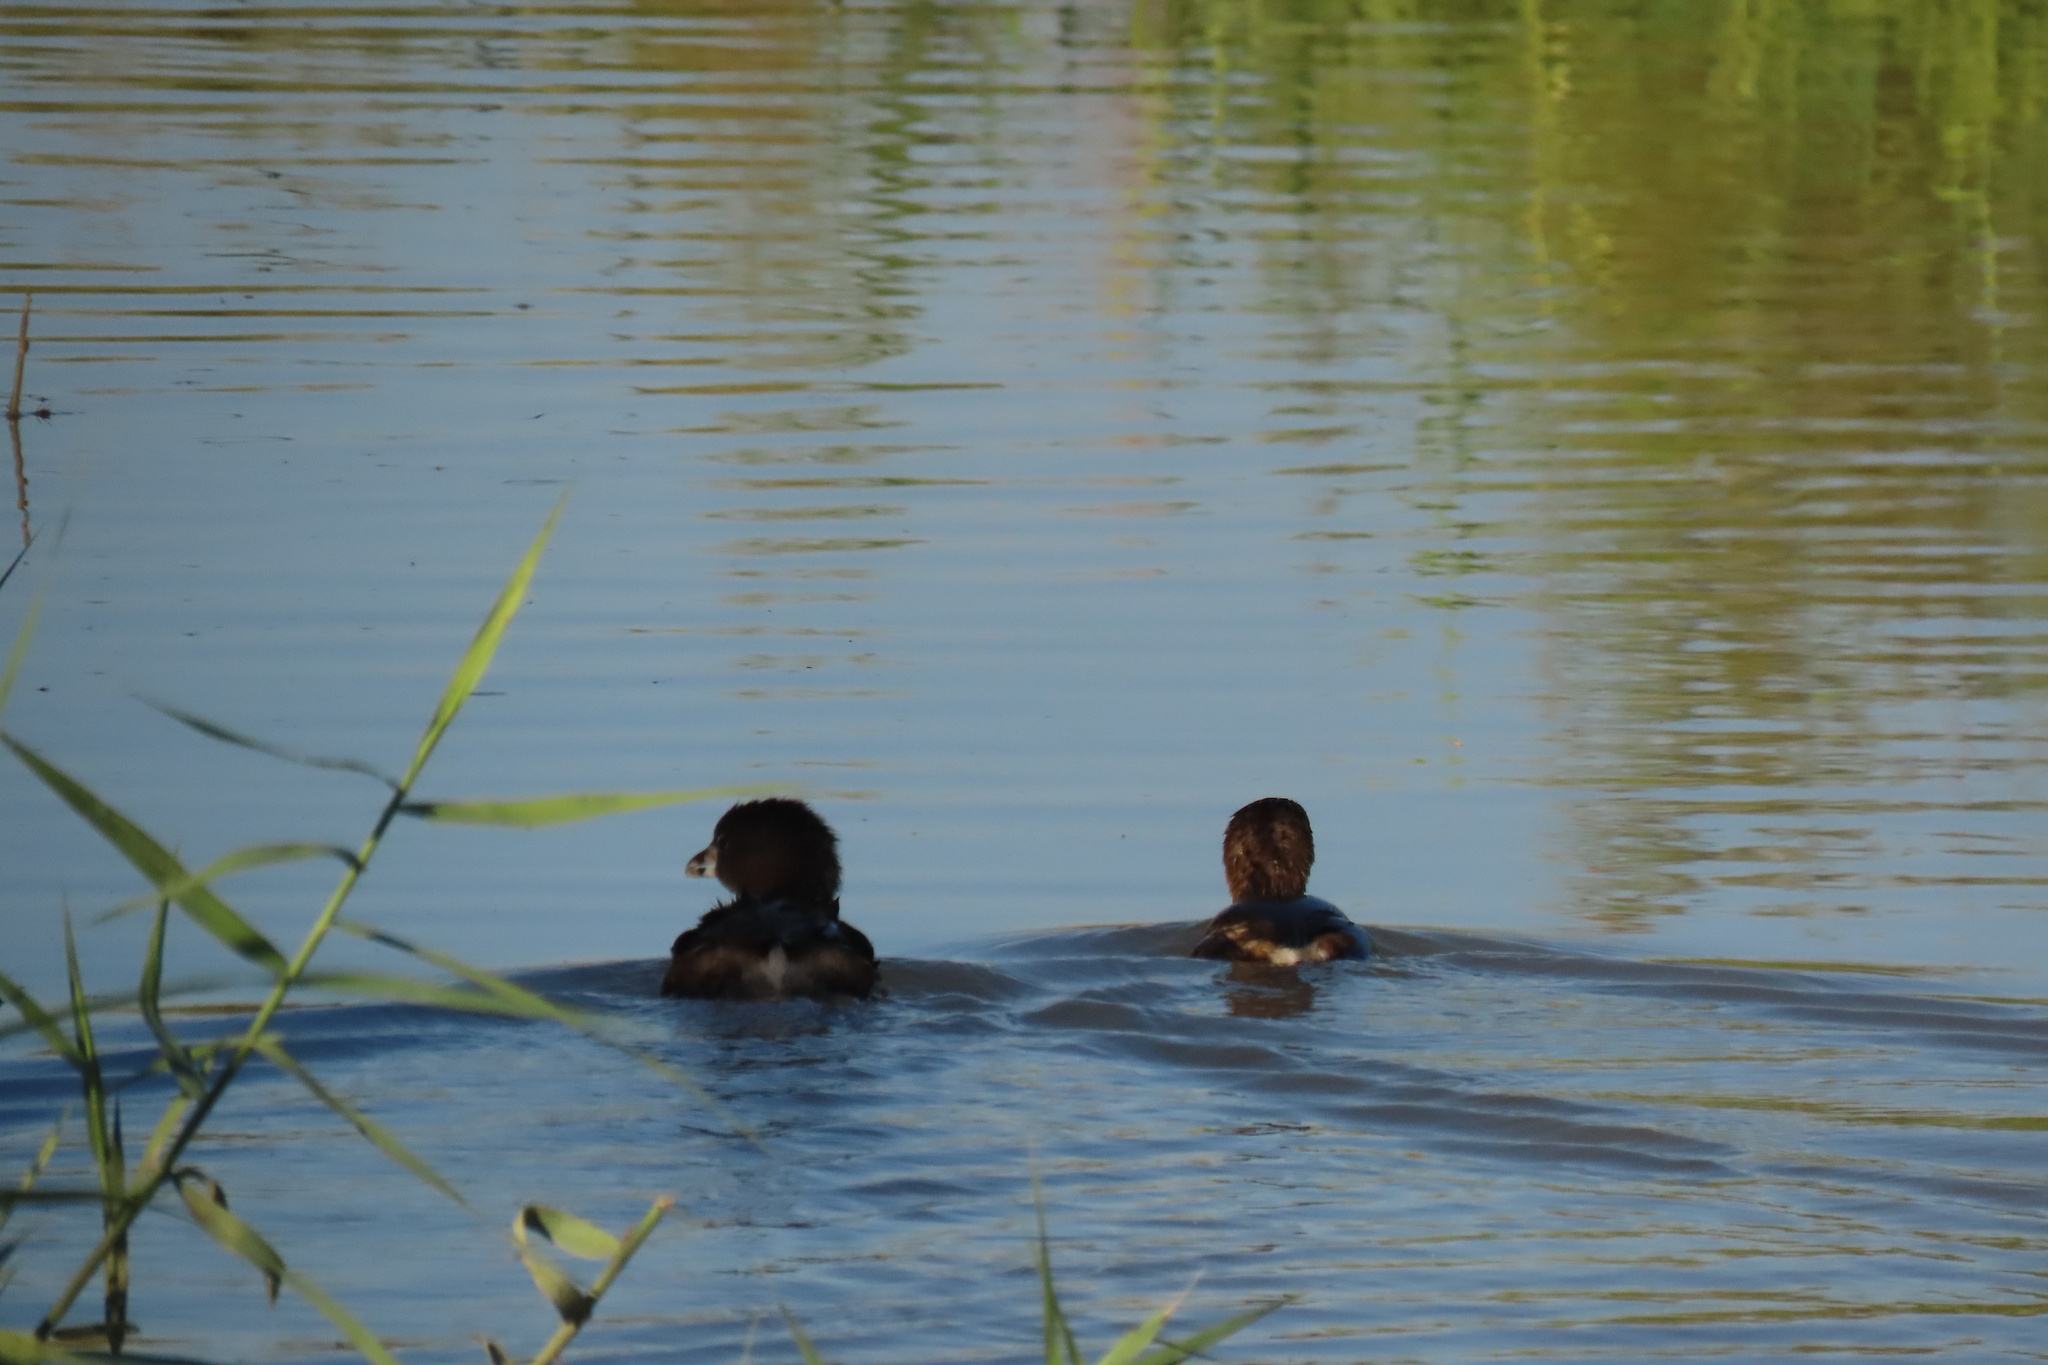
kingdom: Animalia
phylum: Chordata
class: Aves
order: Podicipediformes
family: Podicipedidae
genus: Podilymbus
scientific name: Podilymbus podiceps
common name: Pied-billed grebe
